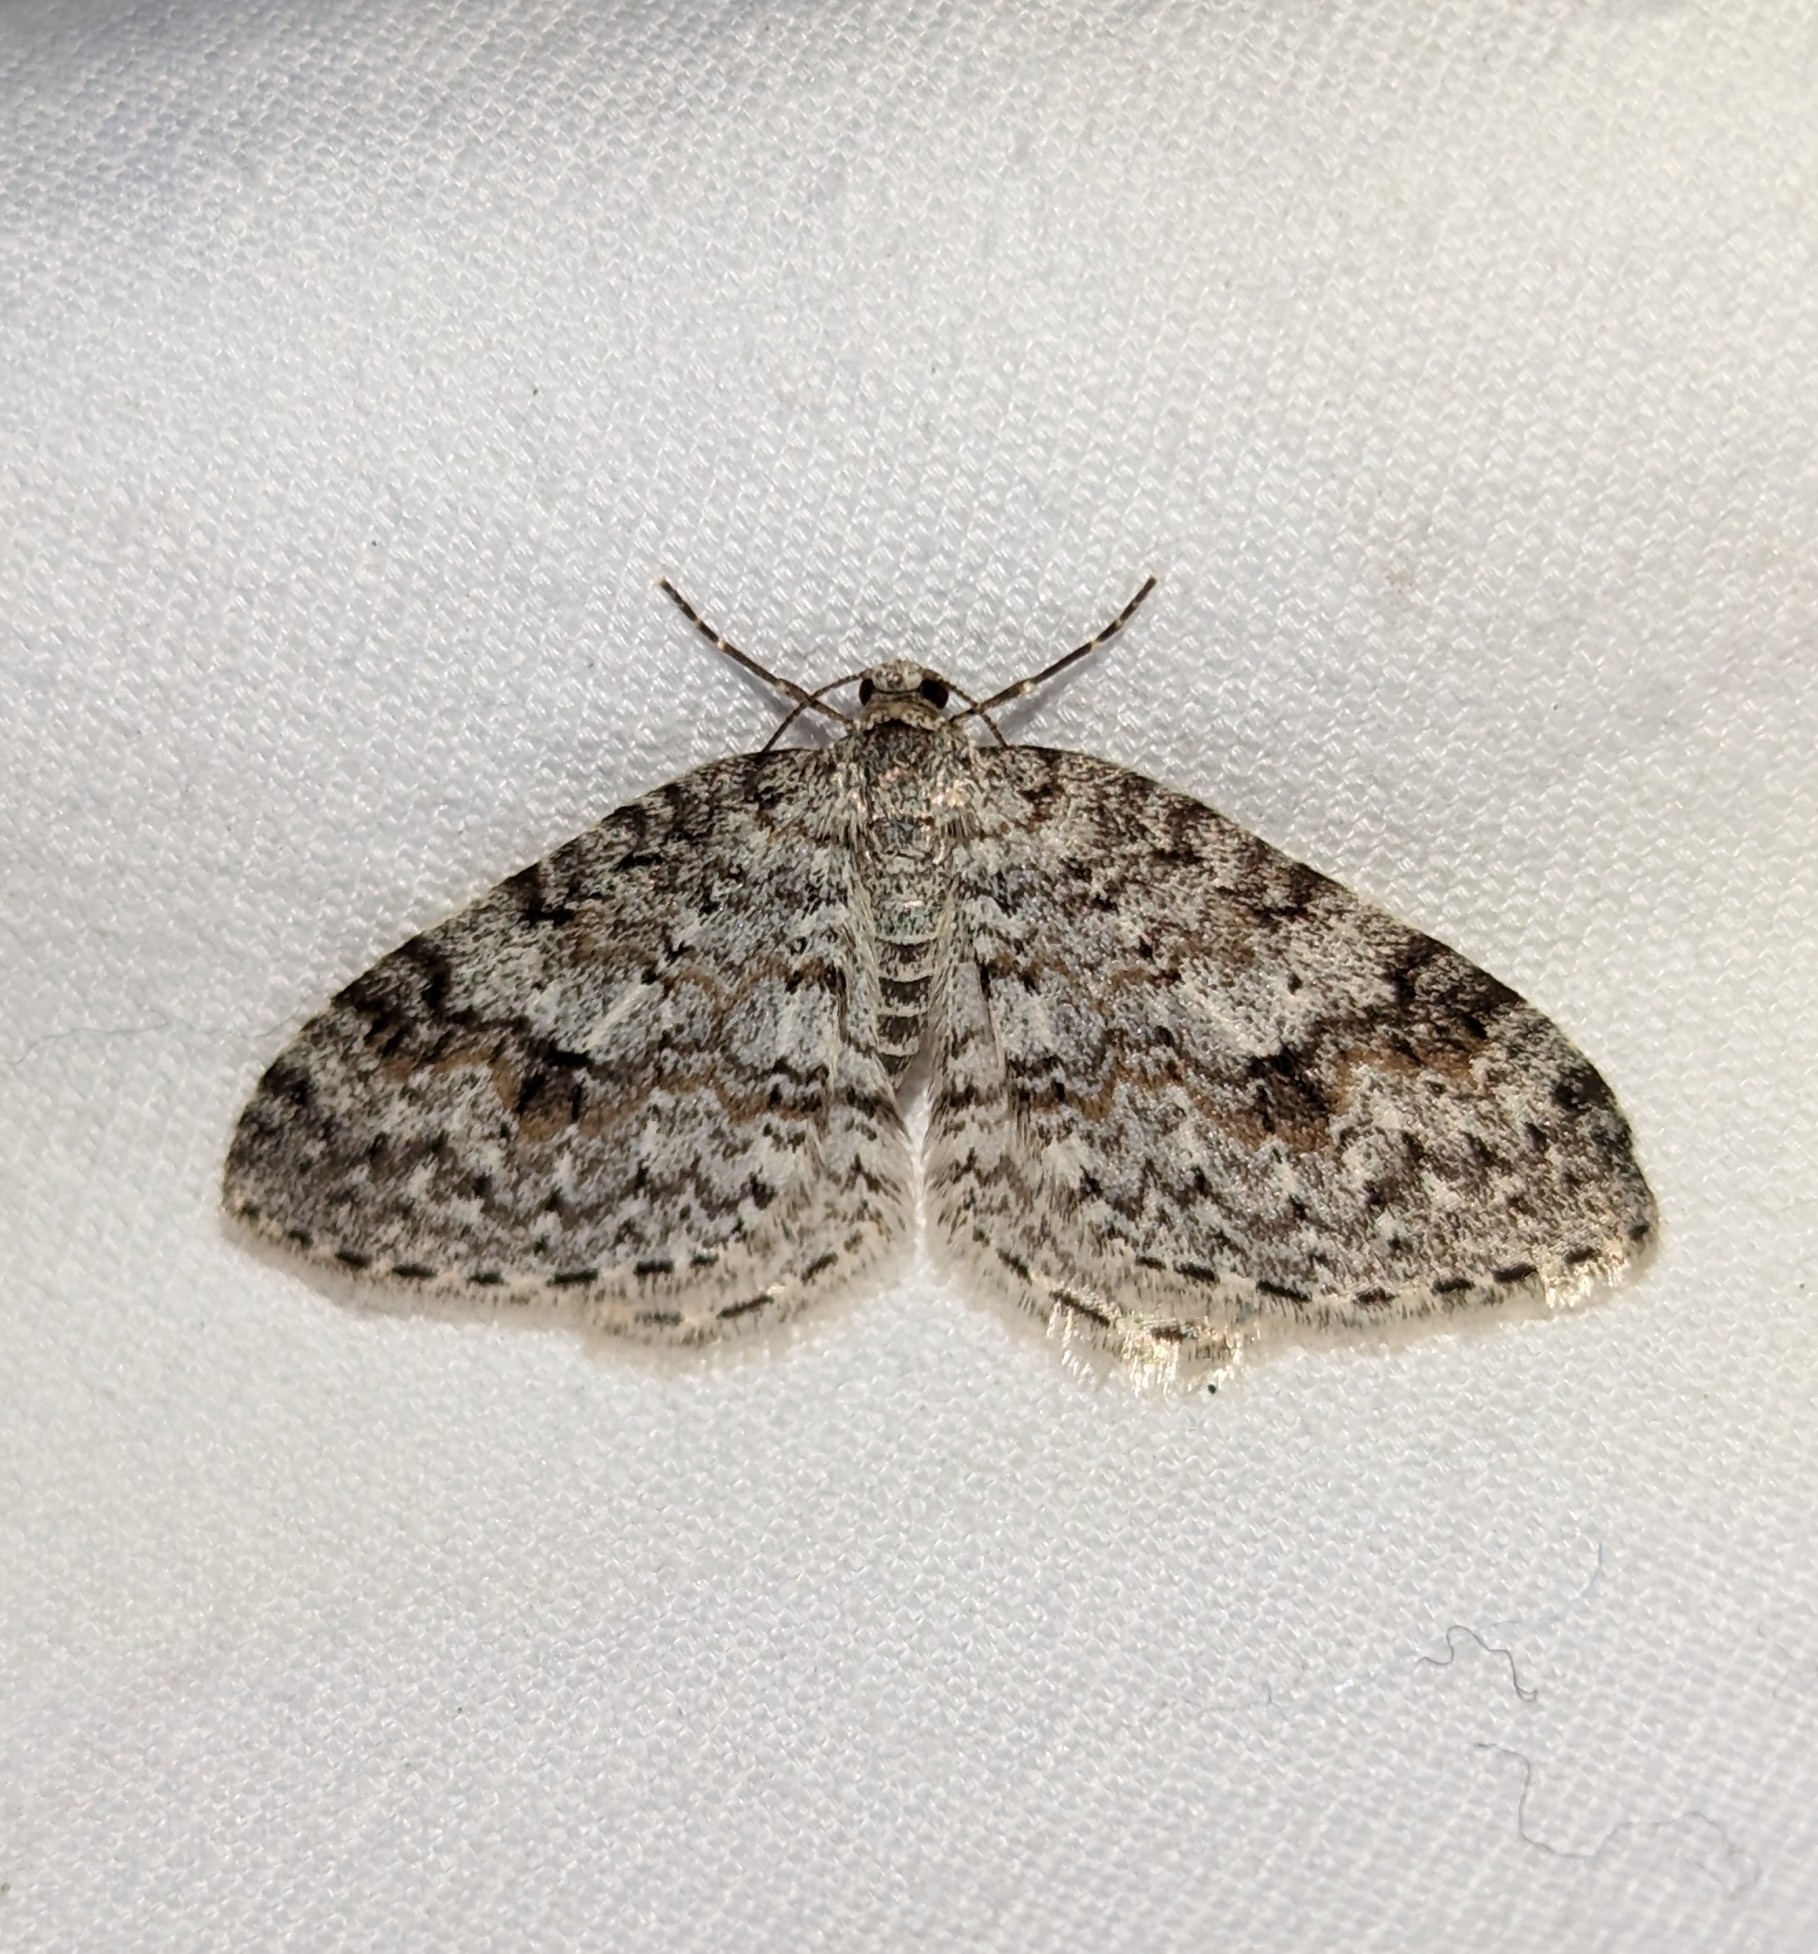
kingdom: Animalia
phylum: Arthropoda
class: Insecta
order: Lepidoptera
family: Geometridae
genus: Venusia
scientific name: Venusia pearsalli
